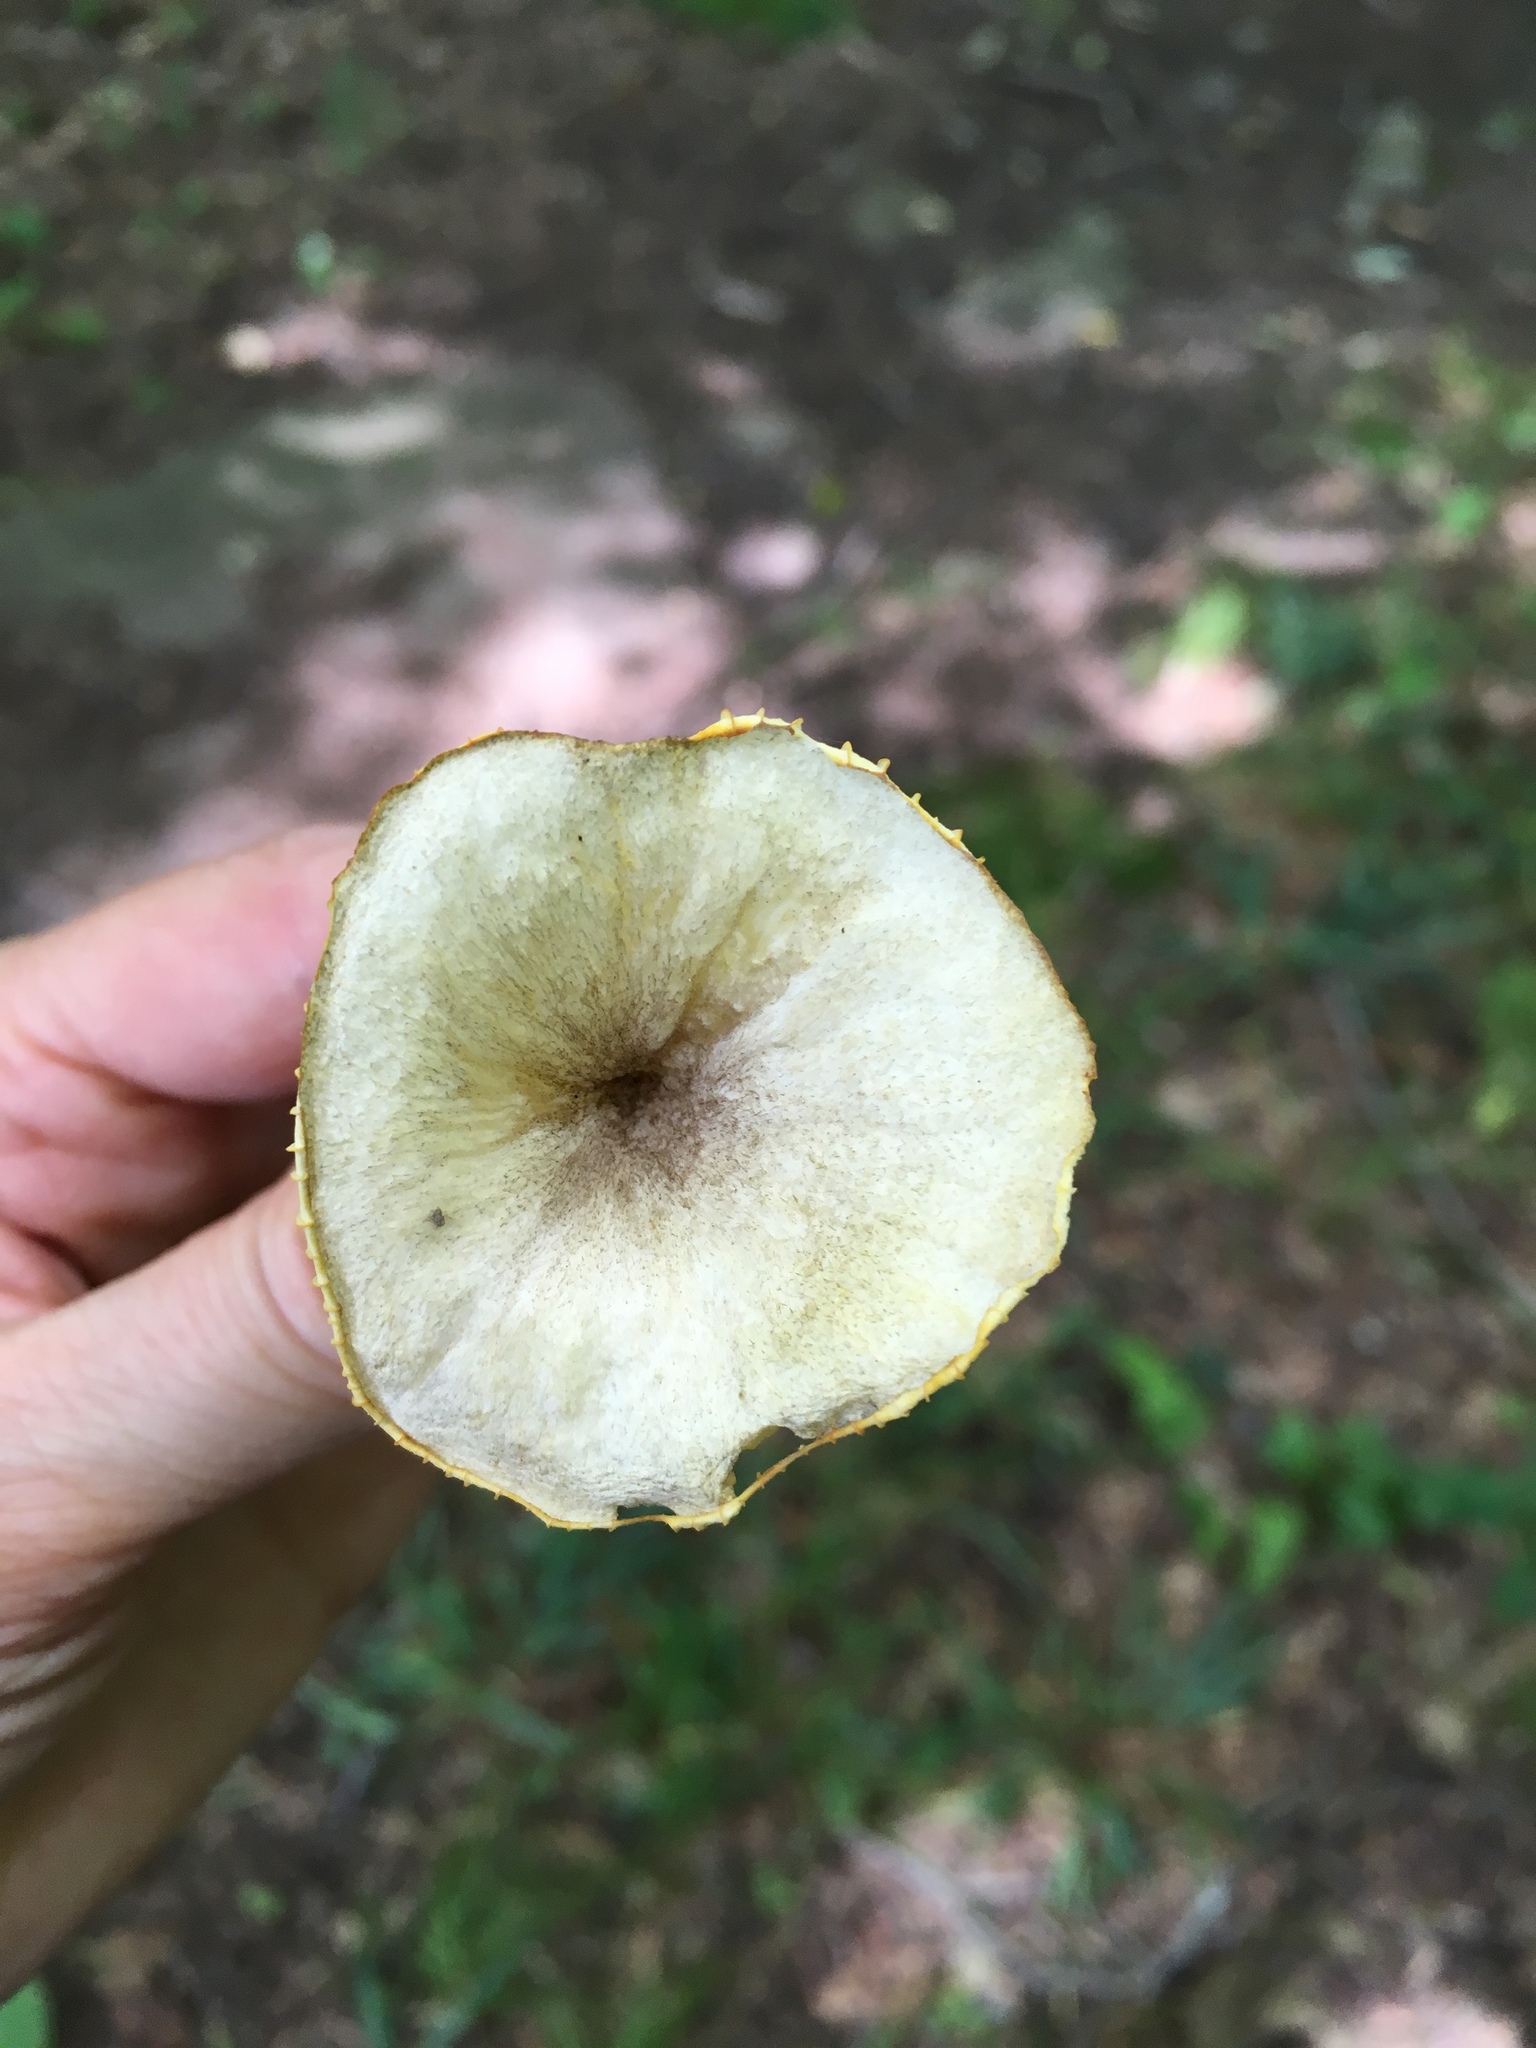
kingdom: Fungi
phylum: Basidiomycota
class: Agaricomycetes
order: Agaricales
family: Marasmiaceae
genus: Gerronema
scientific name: Gerronema strombodes
